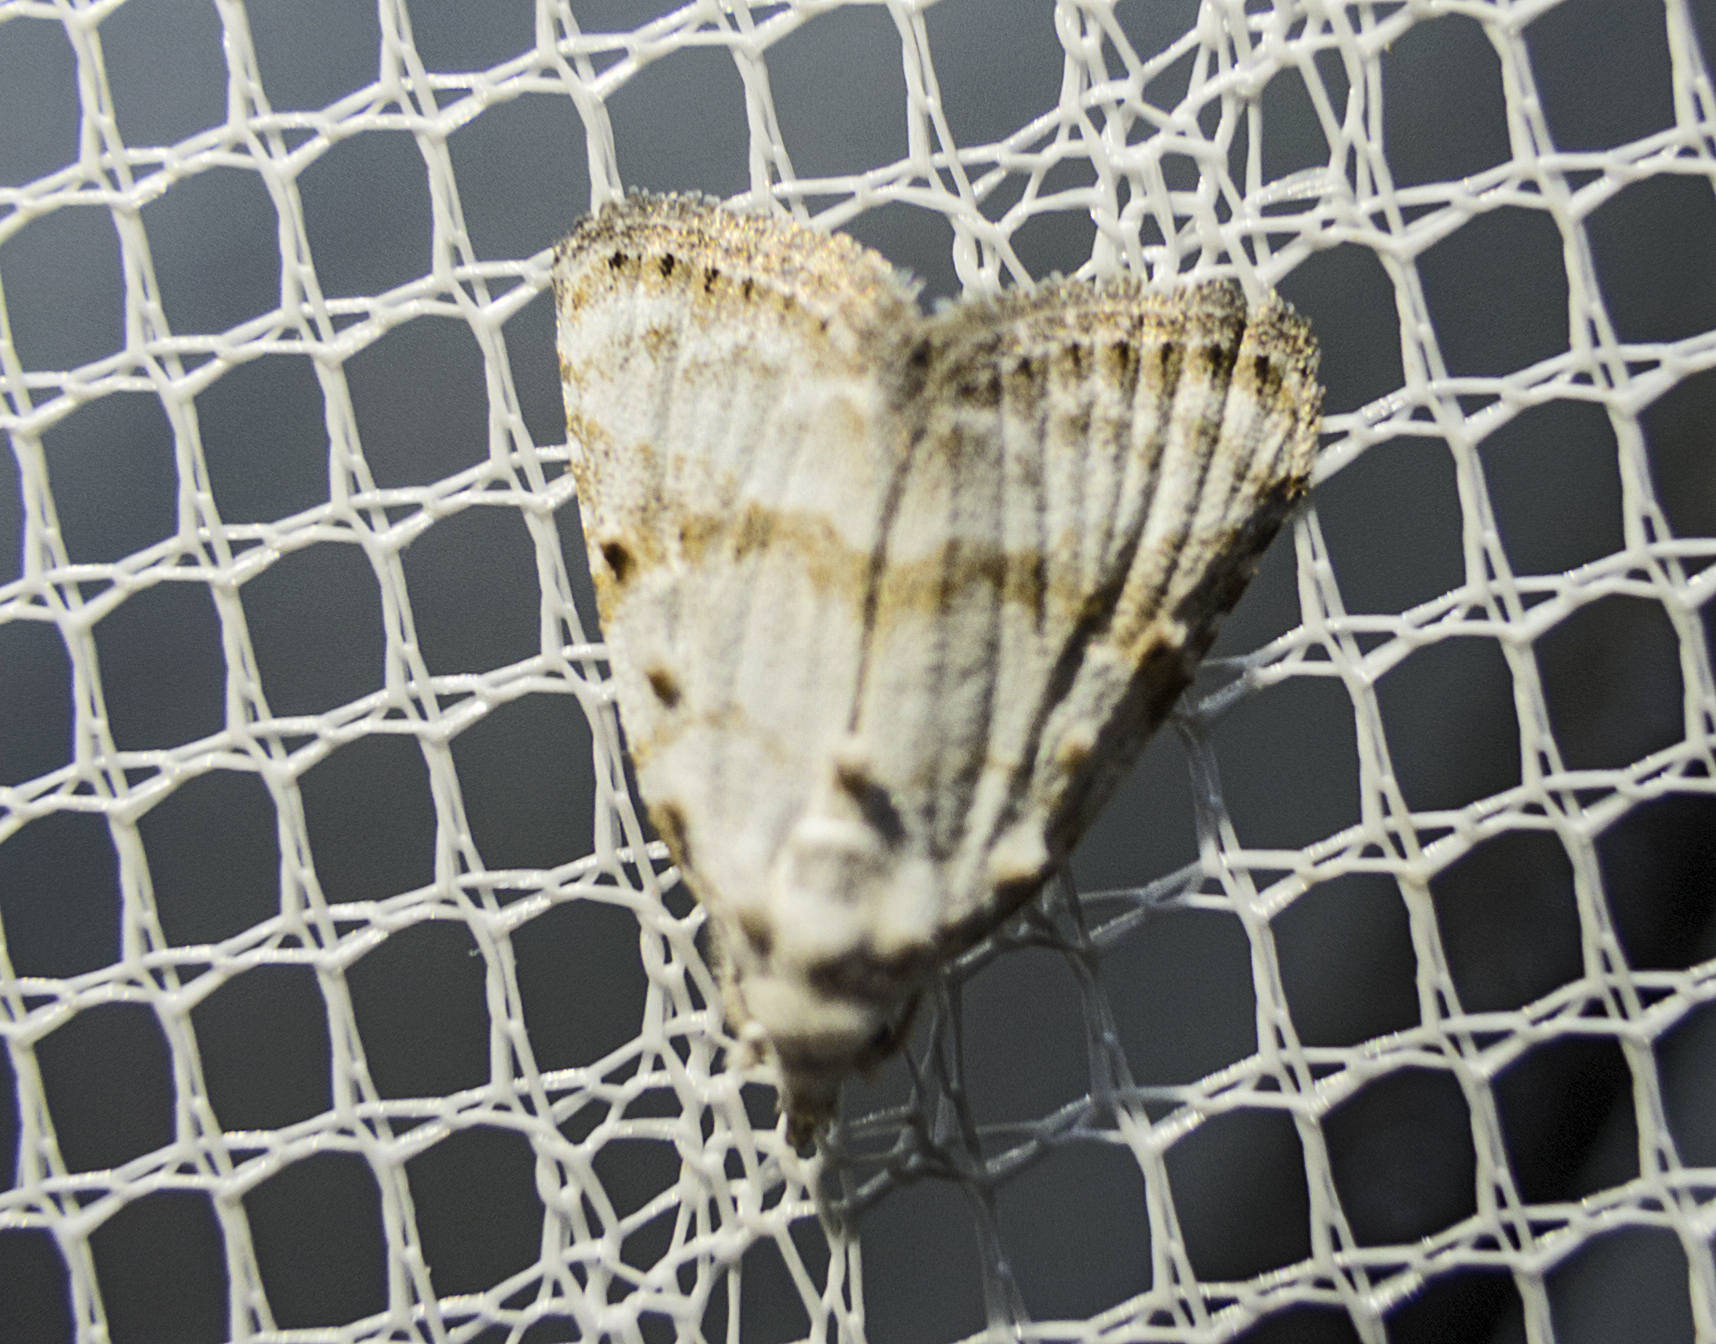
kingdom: Animalia
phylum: Arthropoda
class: Insecta
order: Lepidoptera
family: Nolidae
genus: Nola
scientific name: Nola aerugula
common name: Scarce black arches
